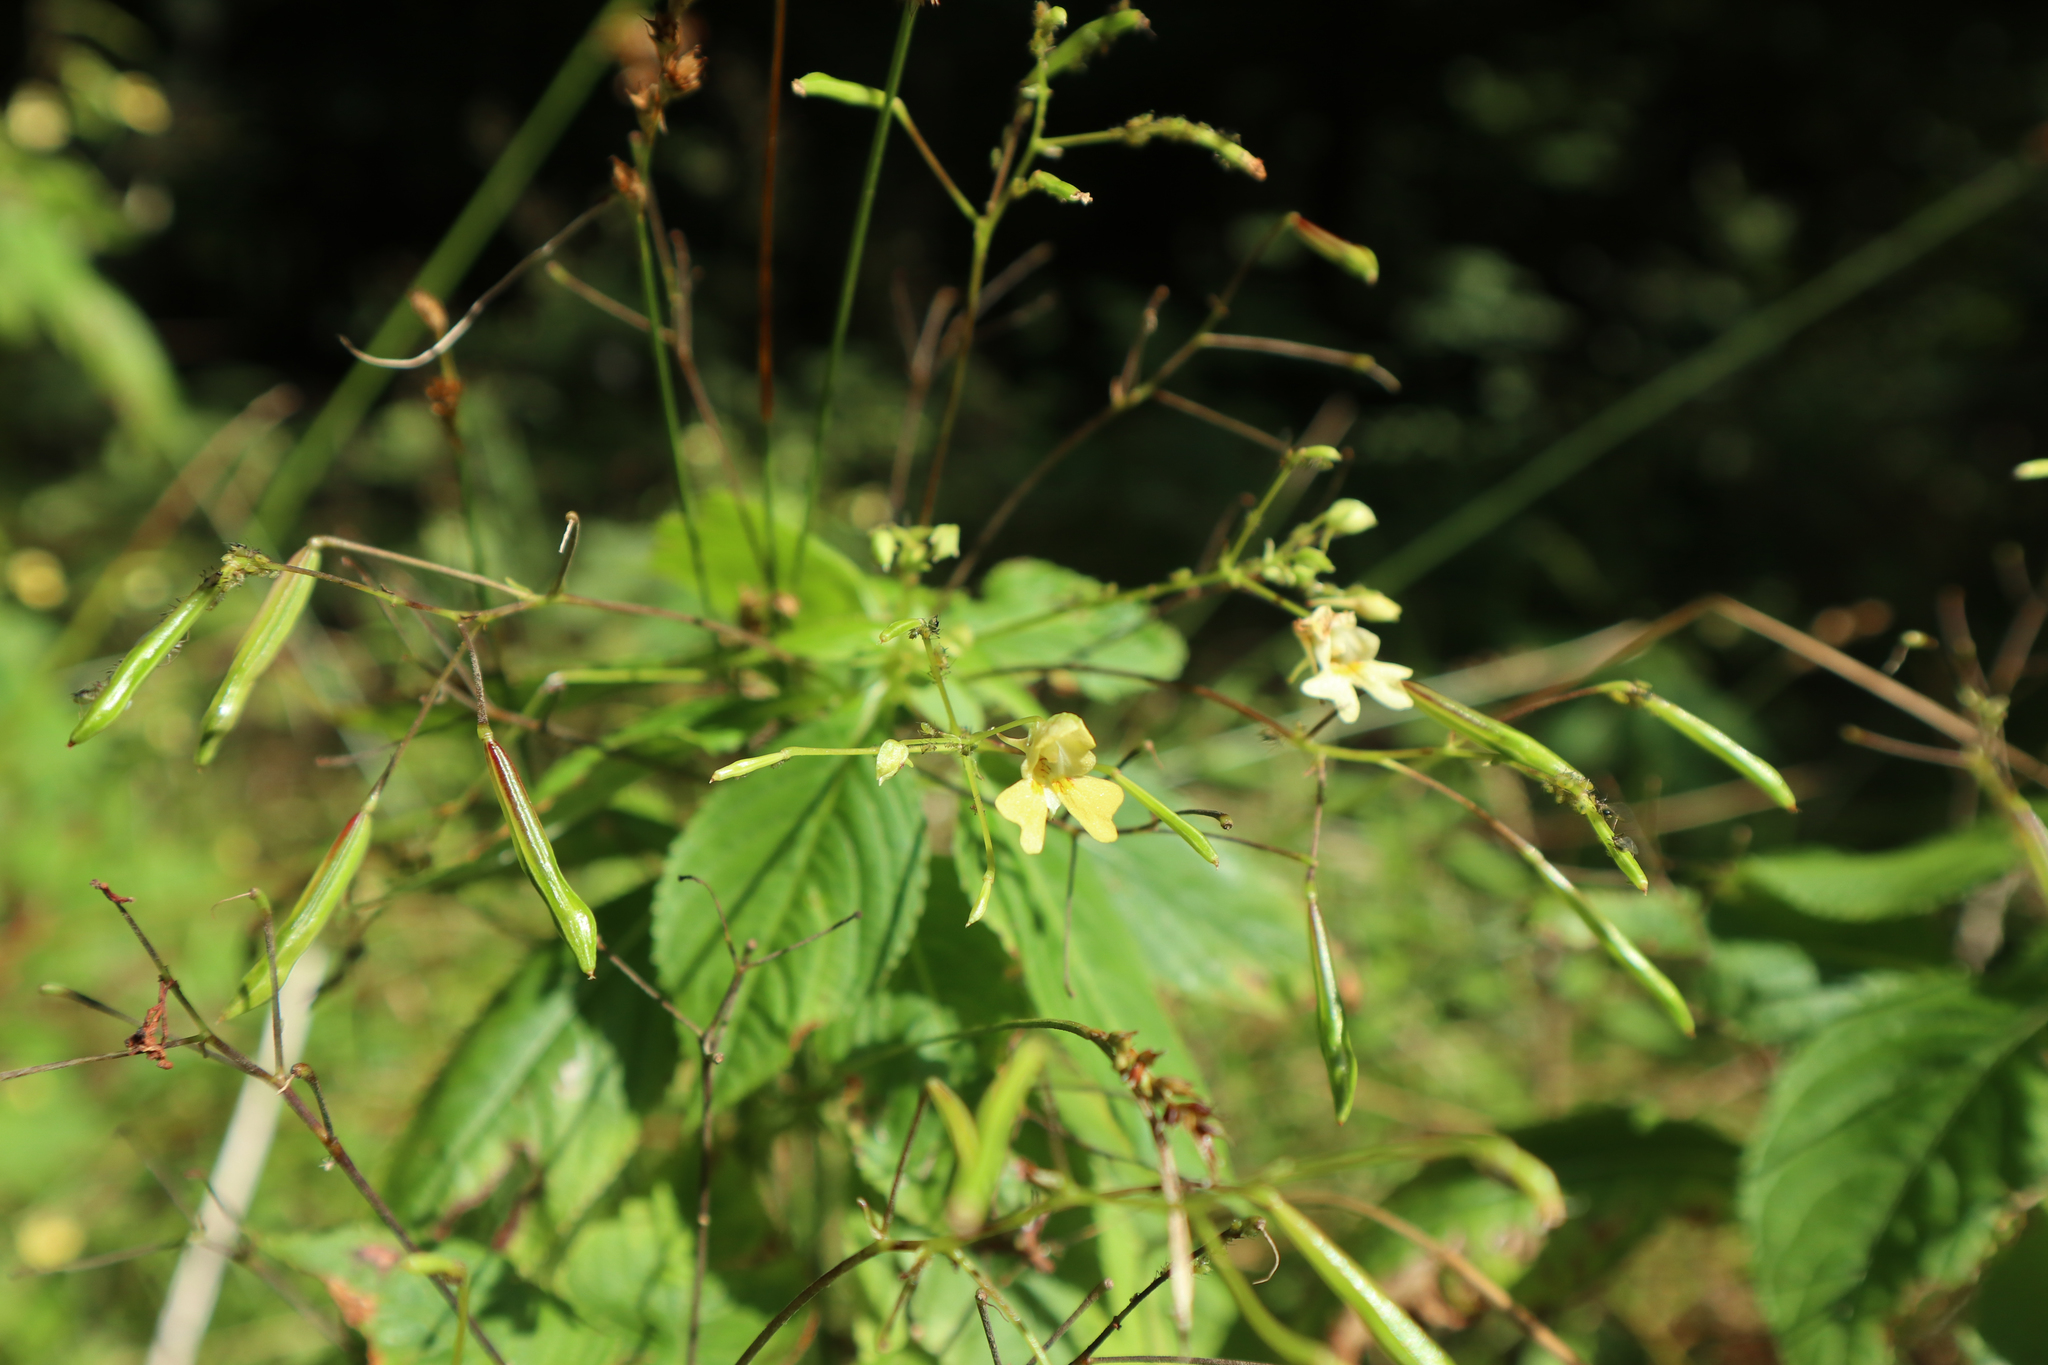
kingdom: Plantae
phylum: Tracheophyta
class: Magnoliopsida
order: Ericales
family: Balsaminaceae
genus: Impatiens
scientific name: Impatiens parviflora
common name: Small balsam
